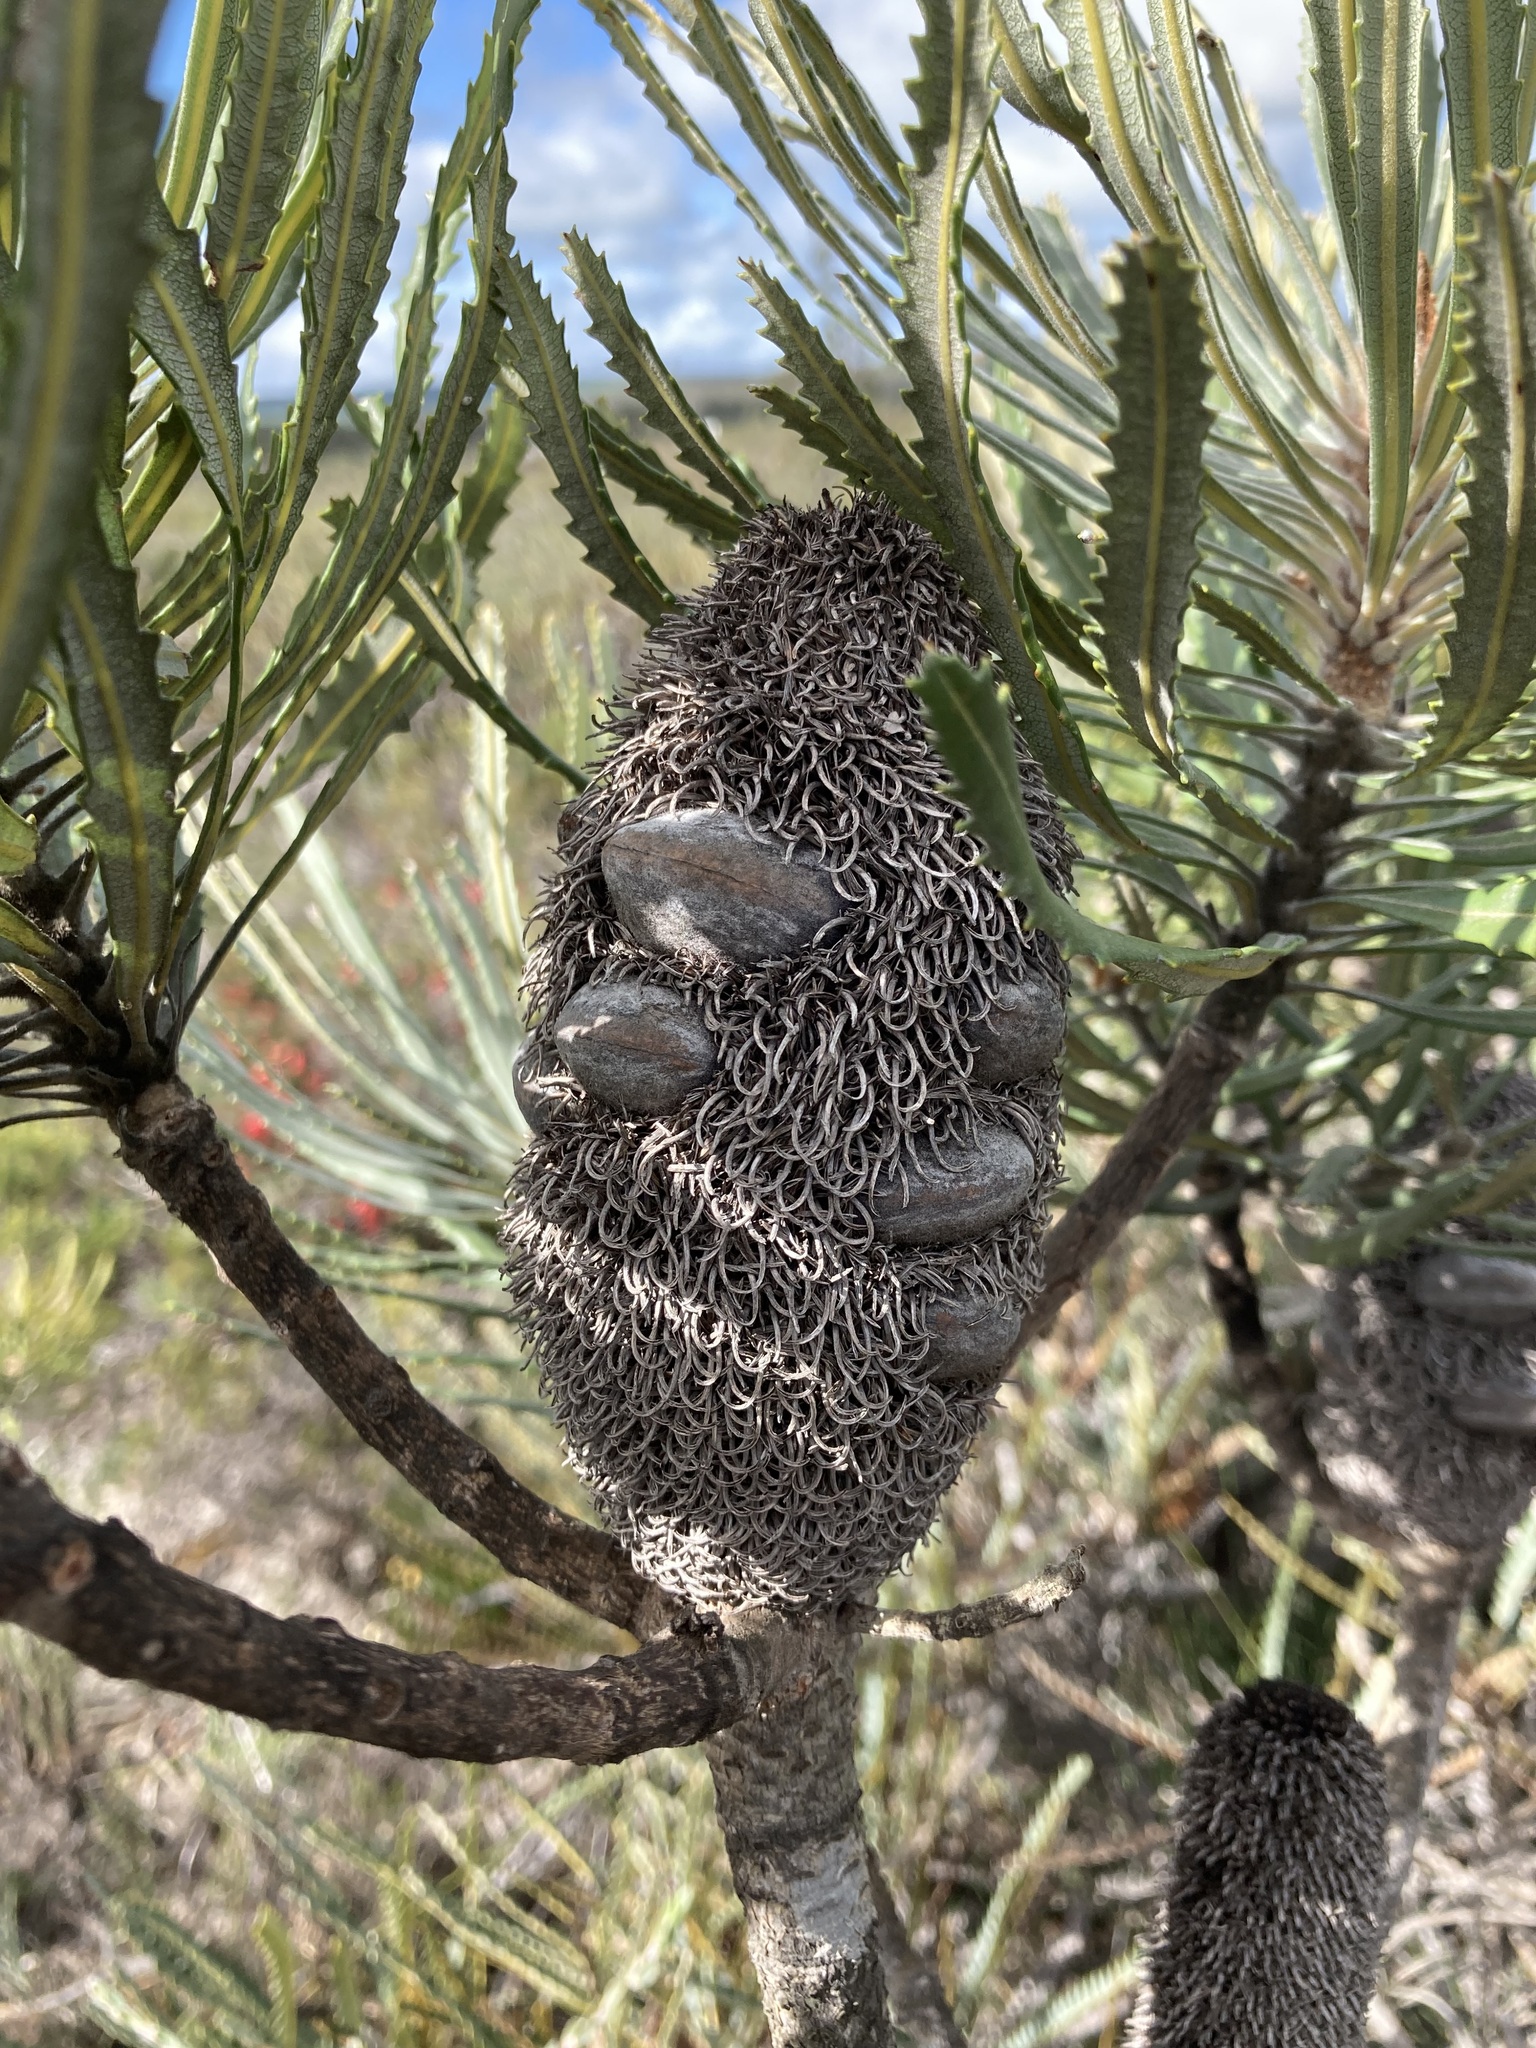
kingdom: Plantae
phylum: Tracheophyta
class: Magnoliopsida
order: Proteales
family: Proteaceae
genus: Banksia
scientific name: Banksia attenuata
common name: Coast banksia
